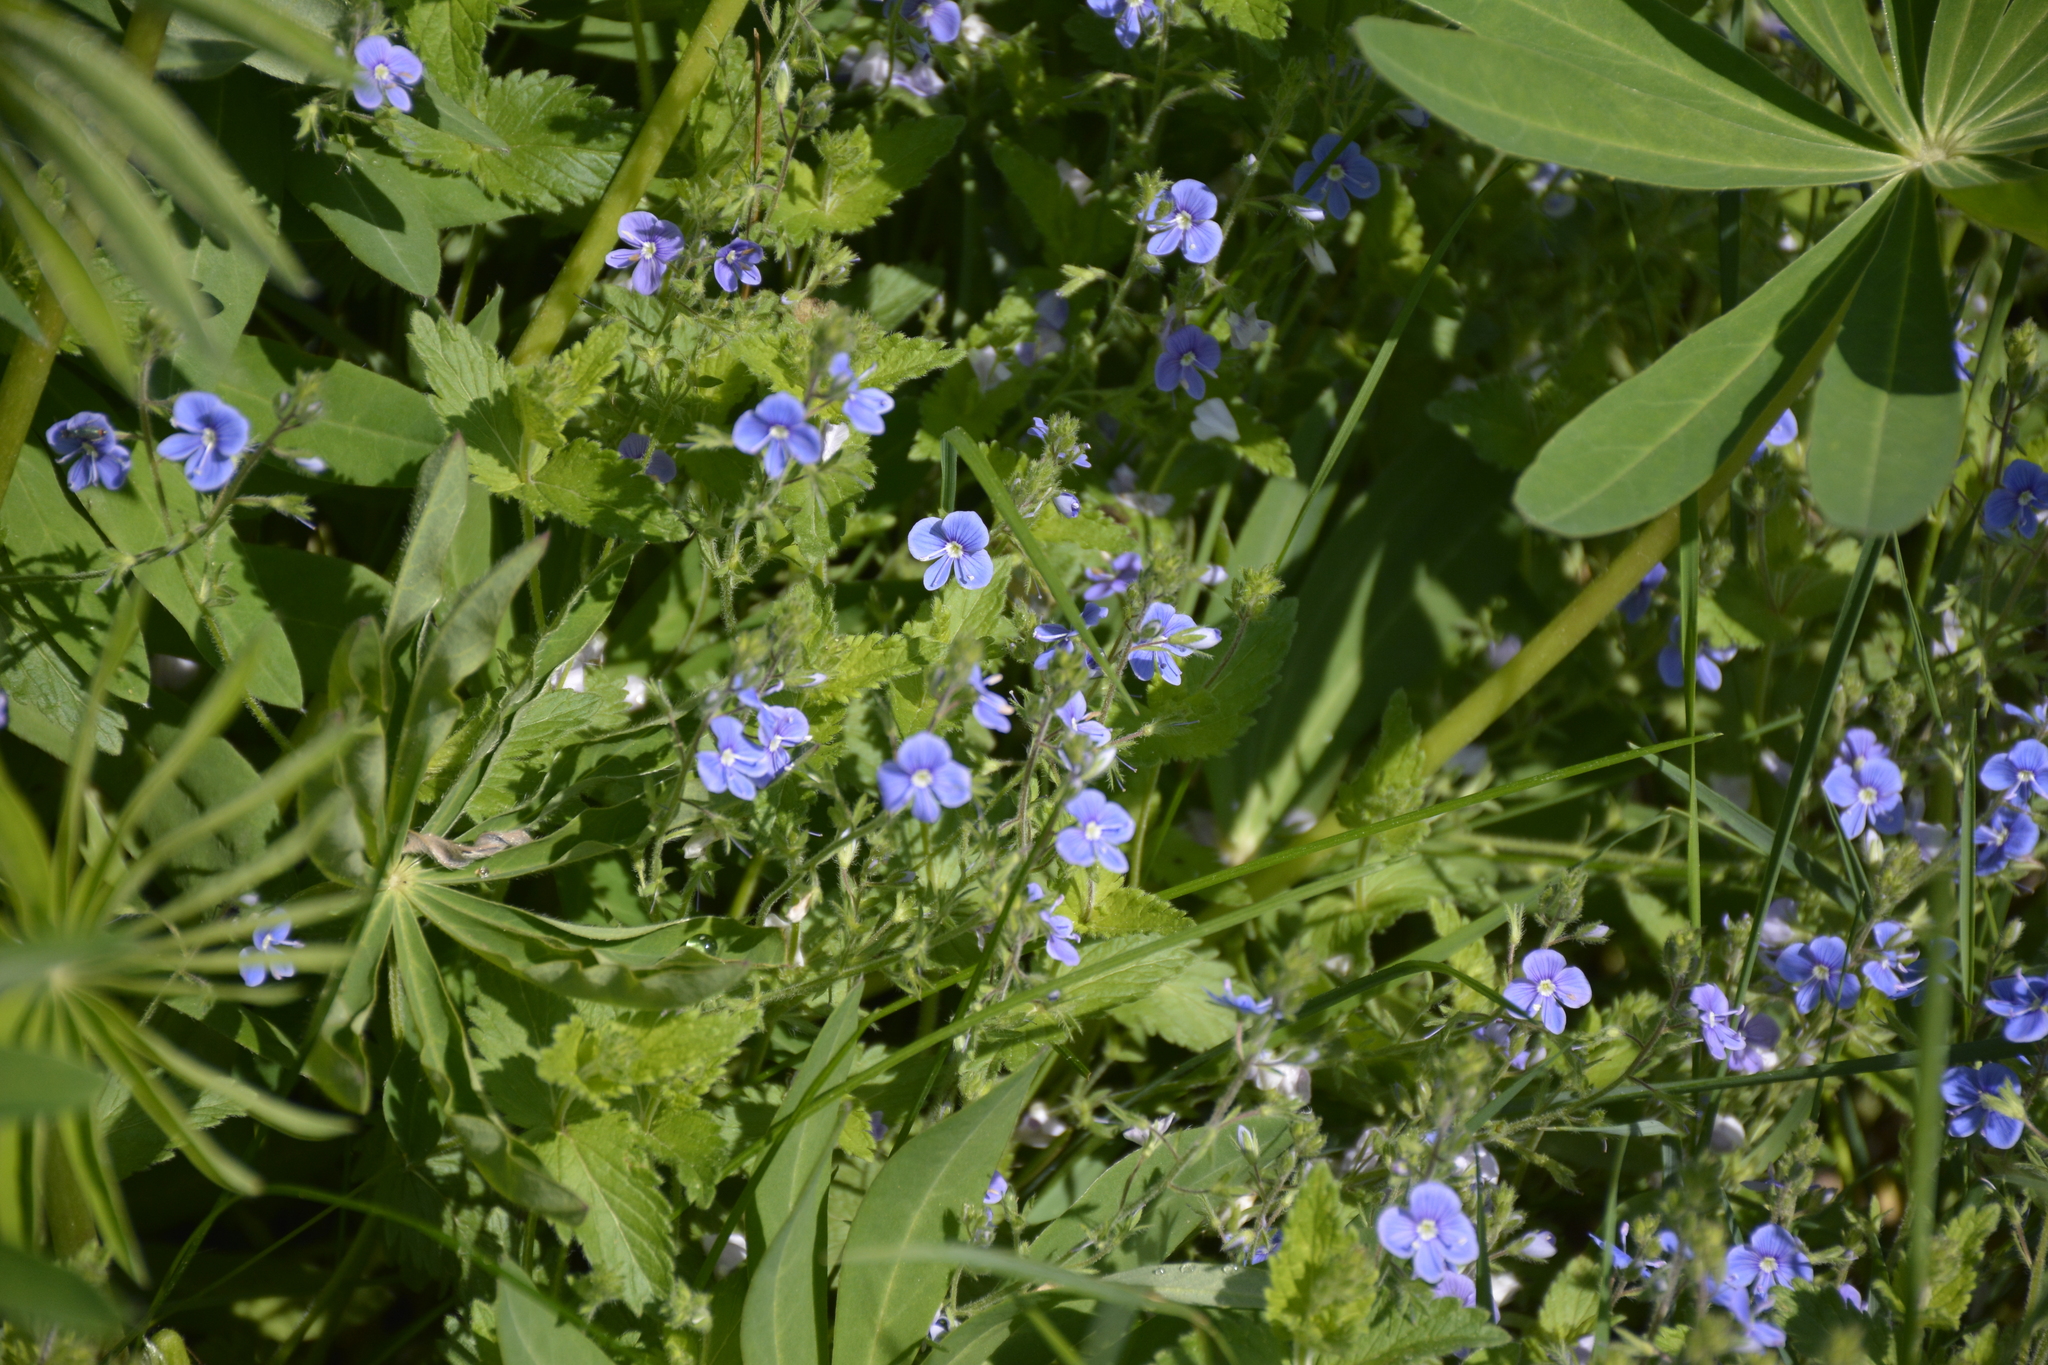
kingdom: Plantae
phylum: Tracheophyta
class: Magnoliopsida
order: Lamiales
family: Plantaginaceae
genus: Veronica
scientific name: Veronica chamaedrys
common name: Germander speedwell
